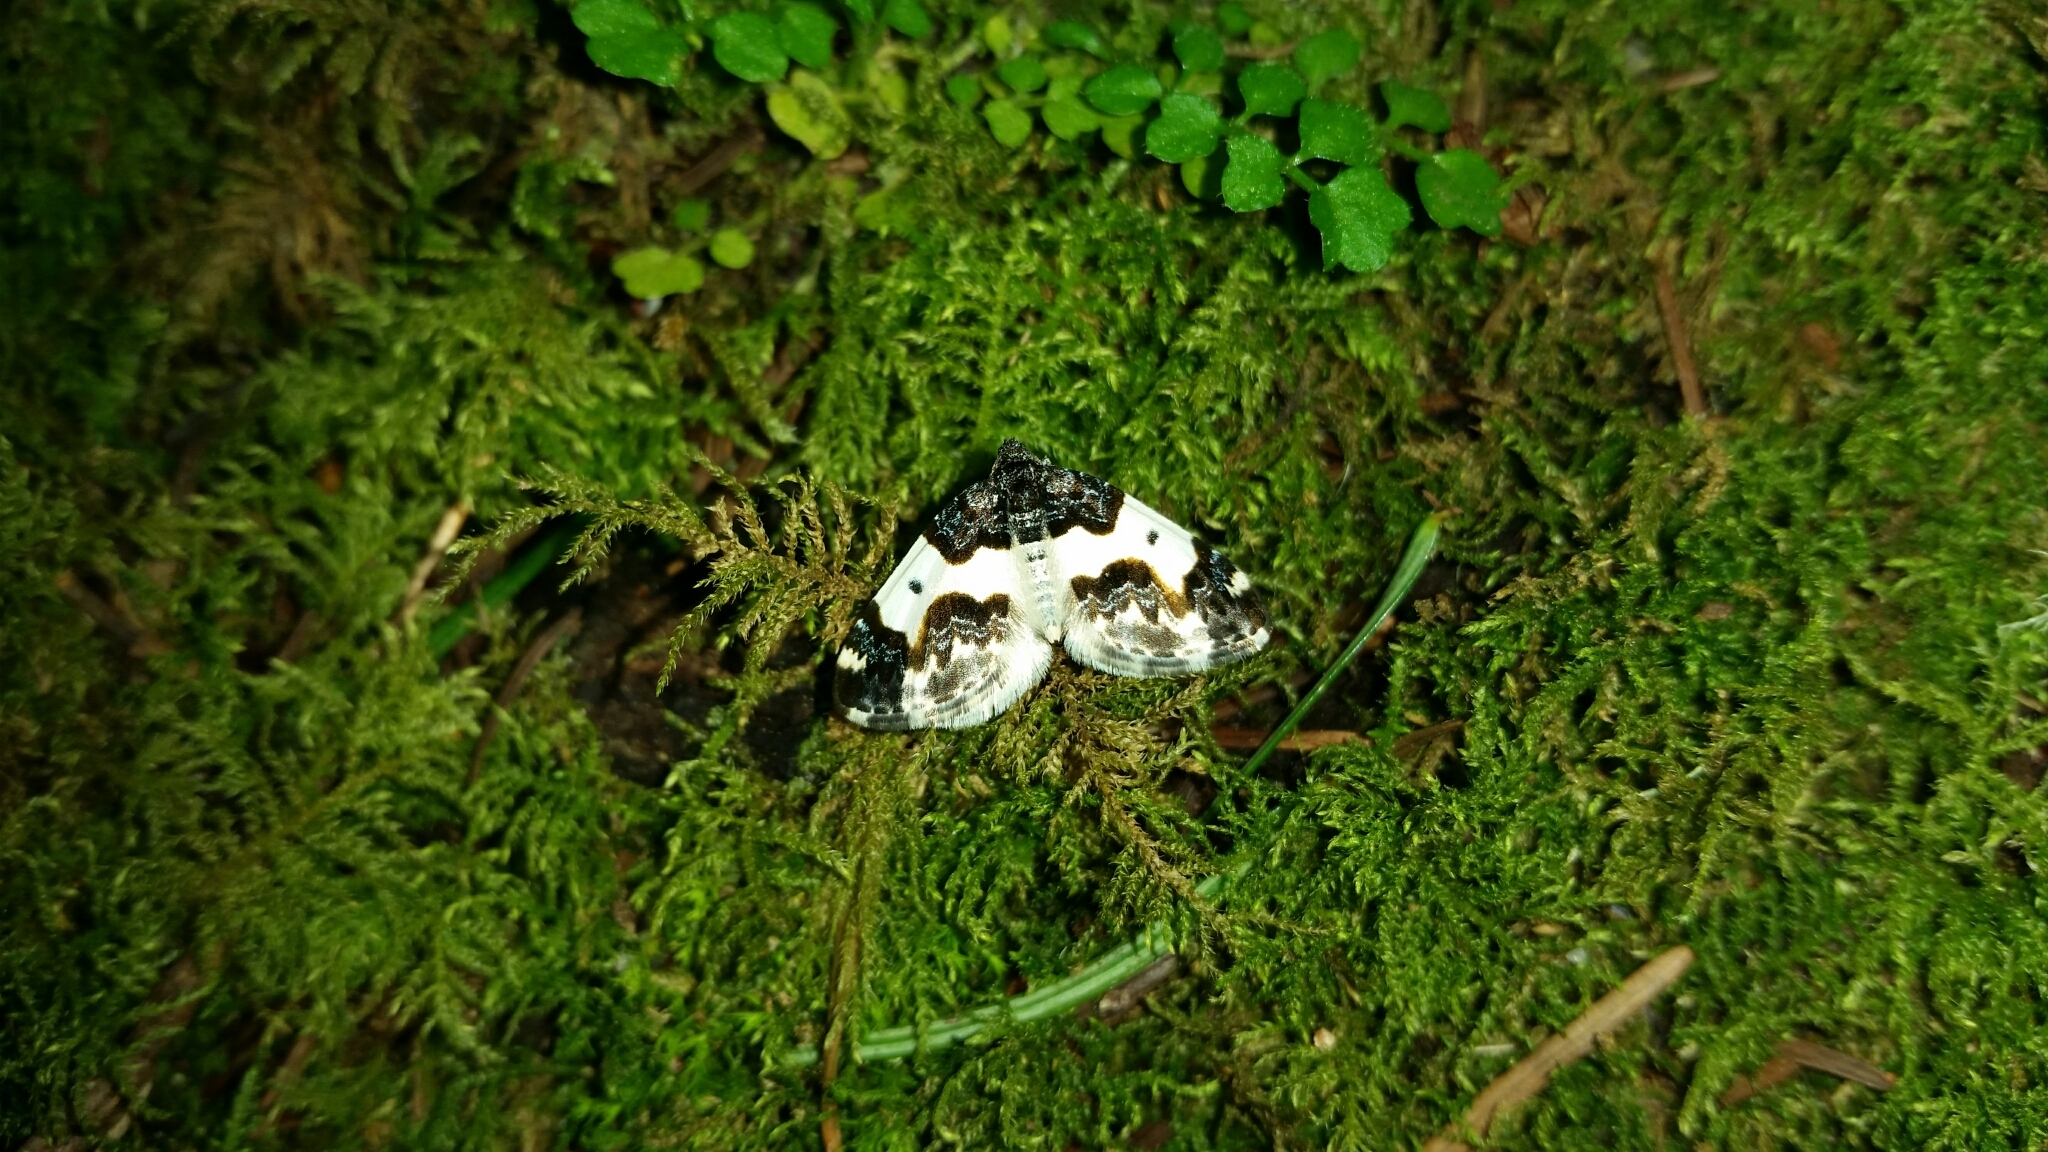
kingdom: Animalia
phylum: Arthropoda
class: Insecta
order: Lepidoptera
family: Geometridae
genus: Mesoleuca
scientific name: Mesoleuca gratulata
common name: Half-white carpet moth
